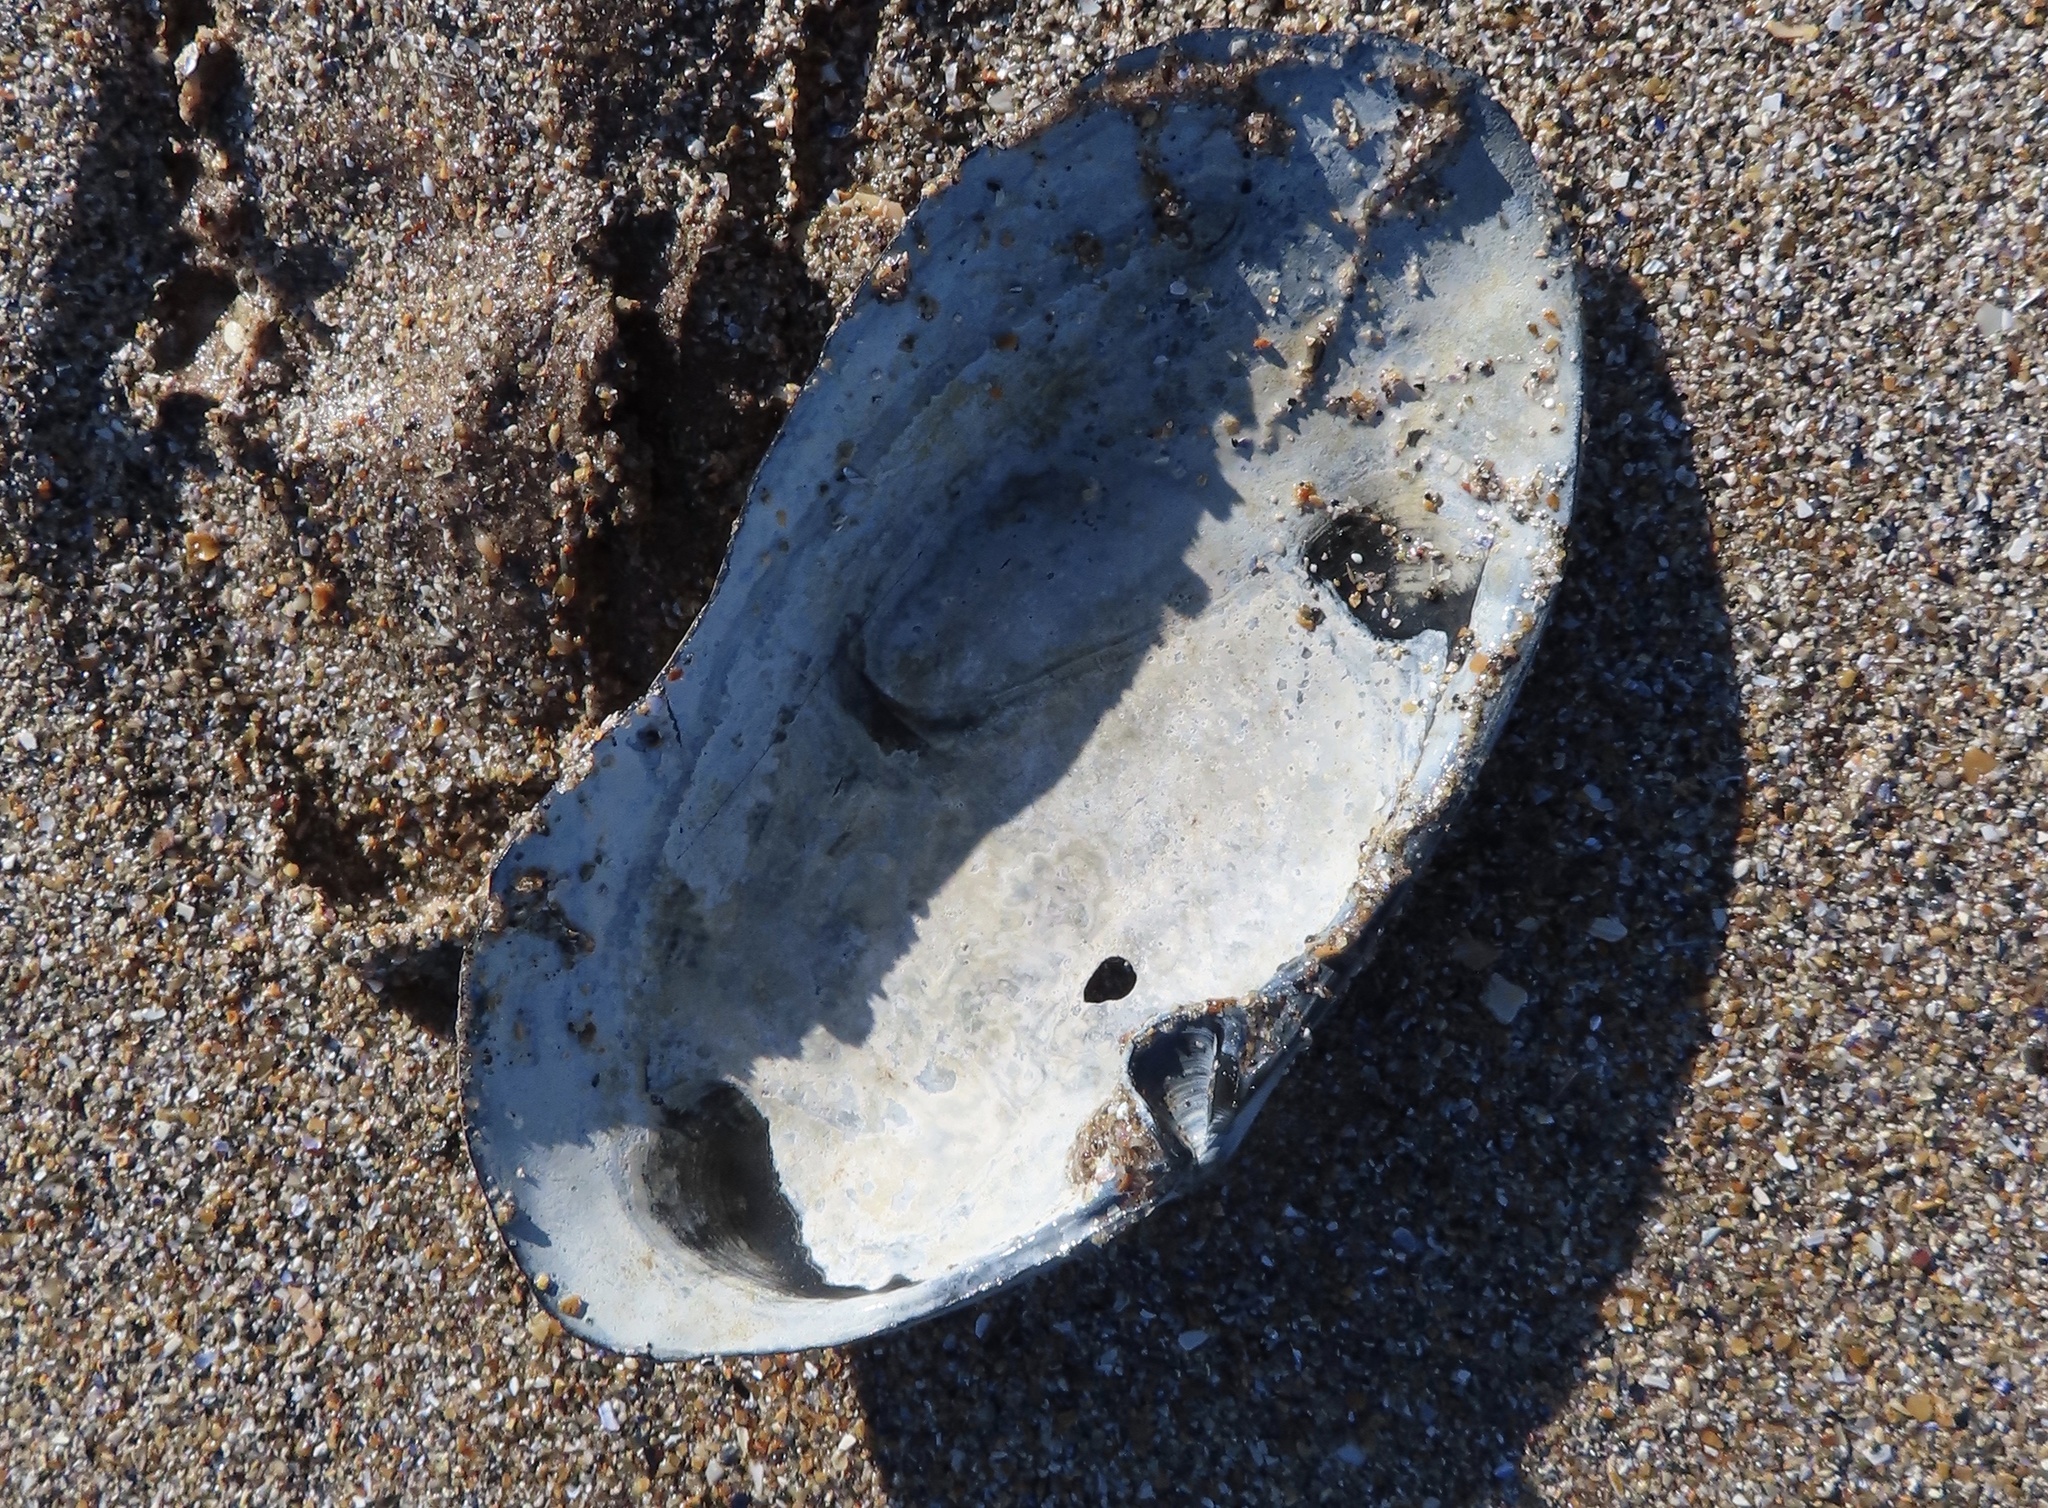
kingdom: Animalia
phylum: Mollusca
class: Bivalvia
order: Venerida
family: Mactridae
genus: Lutraria
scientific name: Lutraria lutraria
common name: Common otter shell
